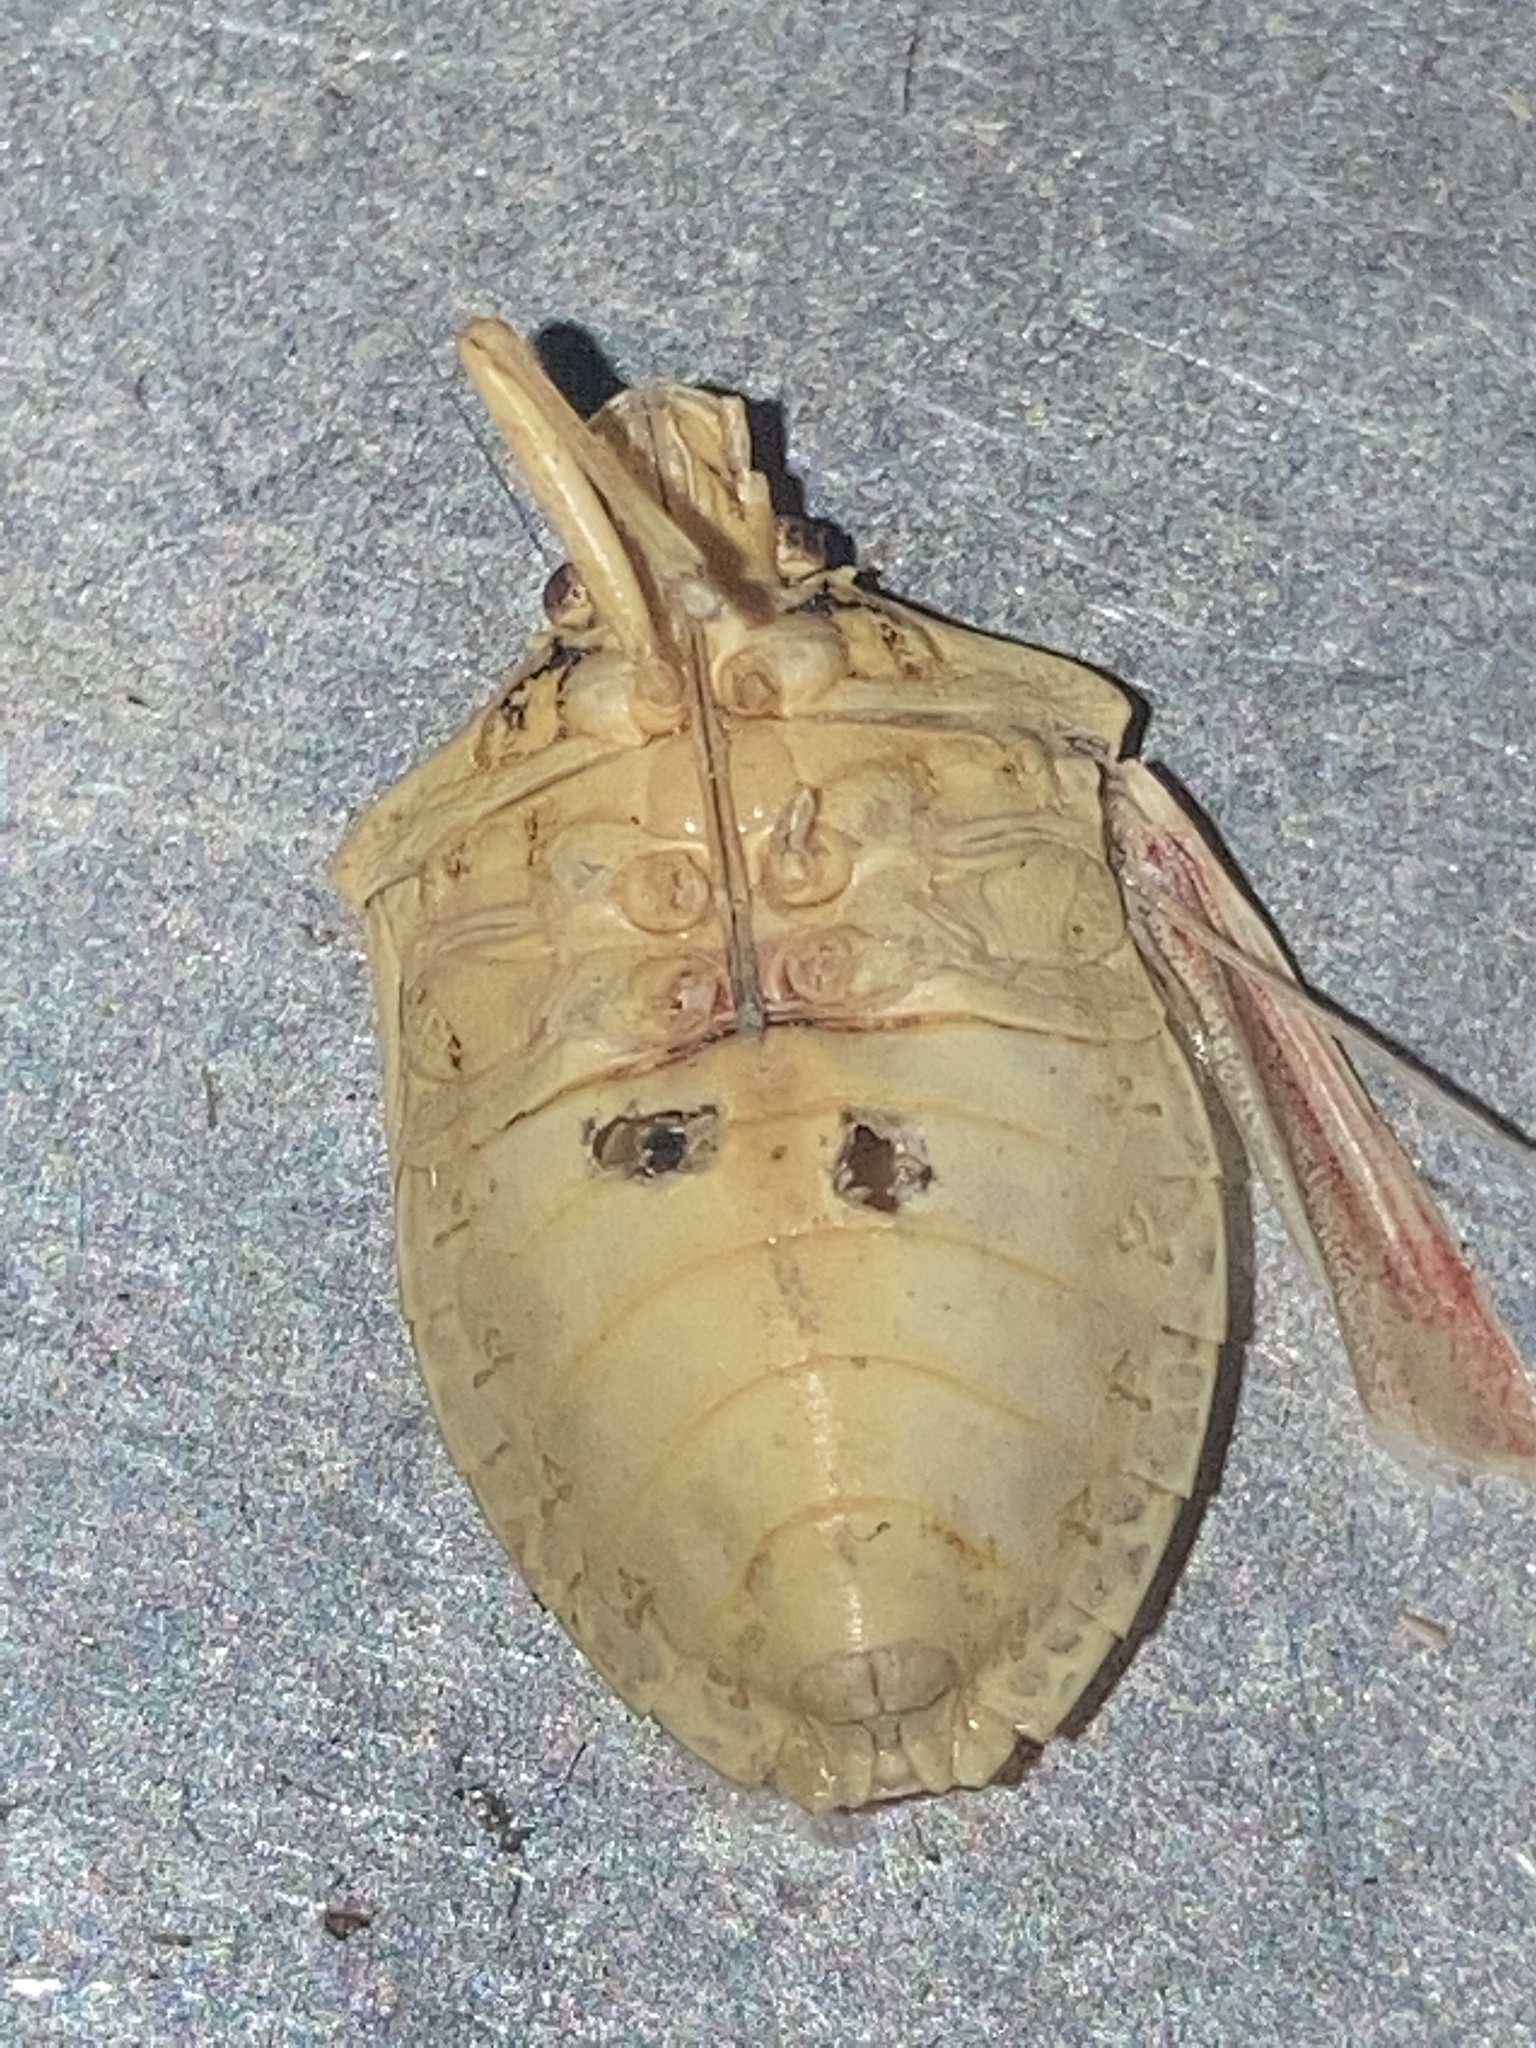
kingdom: Animalia
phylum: Arthropoda
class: Insecta
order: Hemiptera
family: Pentatomidae
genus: Halyomorpha
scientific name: Halyomorpha halys
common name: Brown marmorated stink bug
